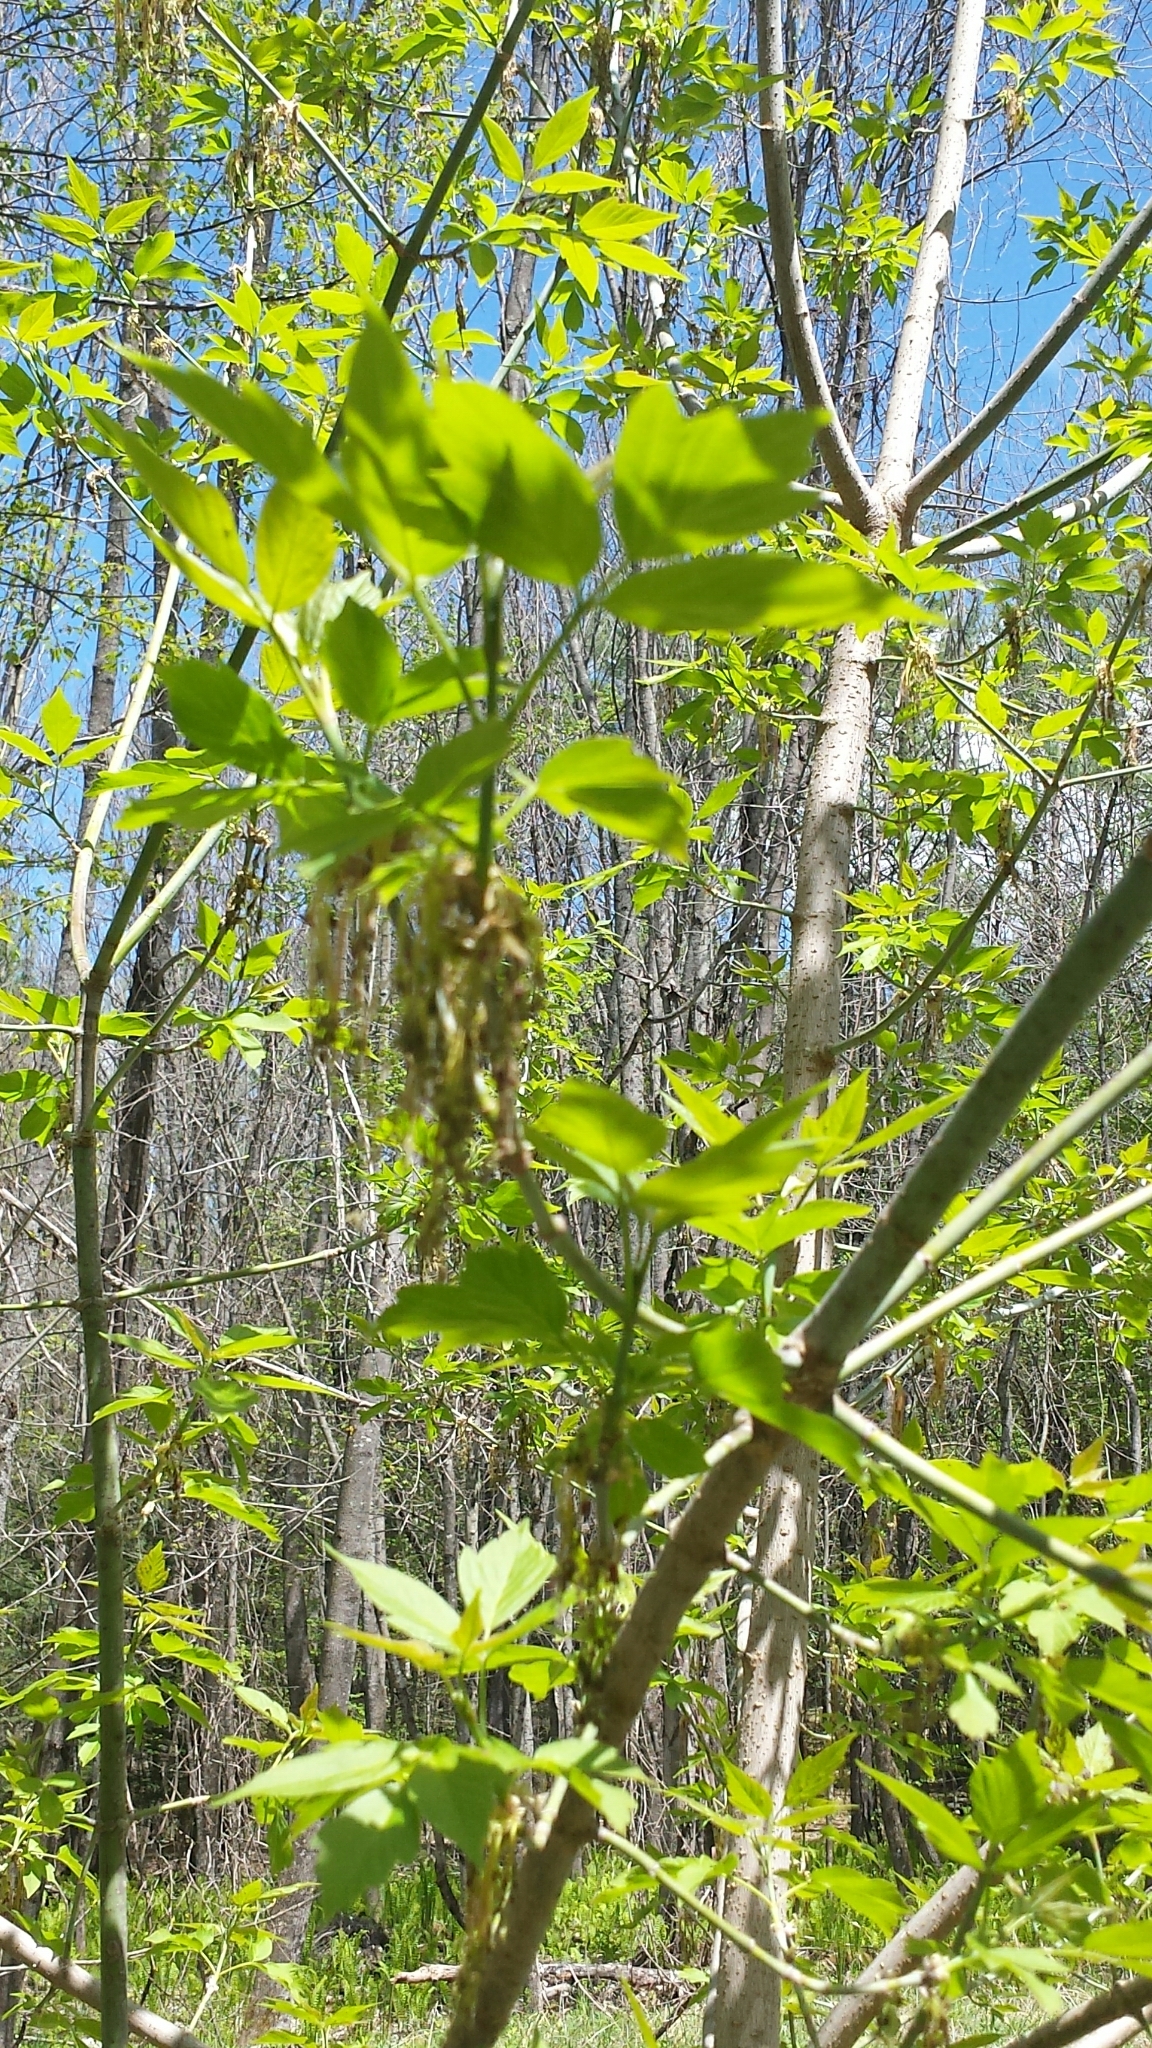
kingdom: Plantae
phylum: Tracheophyta
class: Magnoliopsida
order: Sapindales
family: Sapindaceae
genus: Acer
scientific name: Acer negundo
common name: Ashleaf maple
